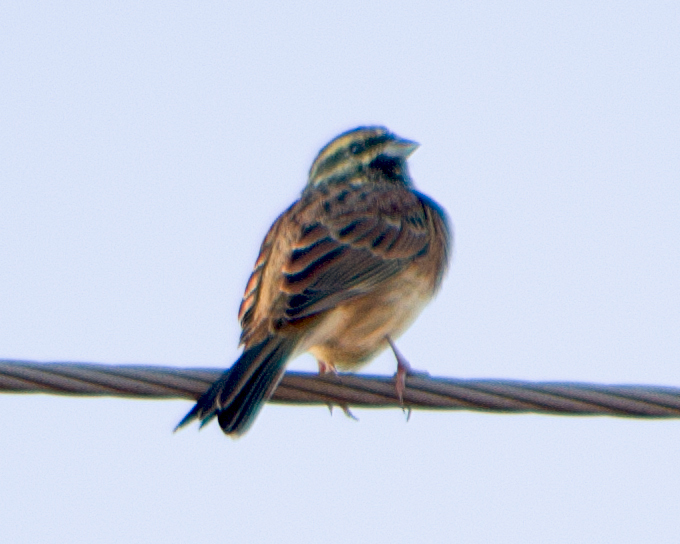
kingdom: Animalia
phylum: Chordata
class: Aves
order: Passeriformes
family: Emberizidae
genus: Emberiza
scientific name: Emberiza cirlus
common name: Cirl bunting
